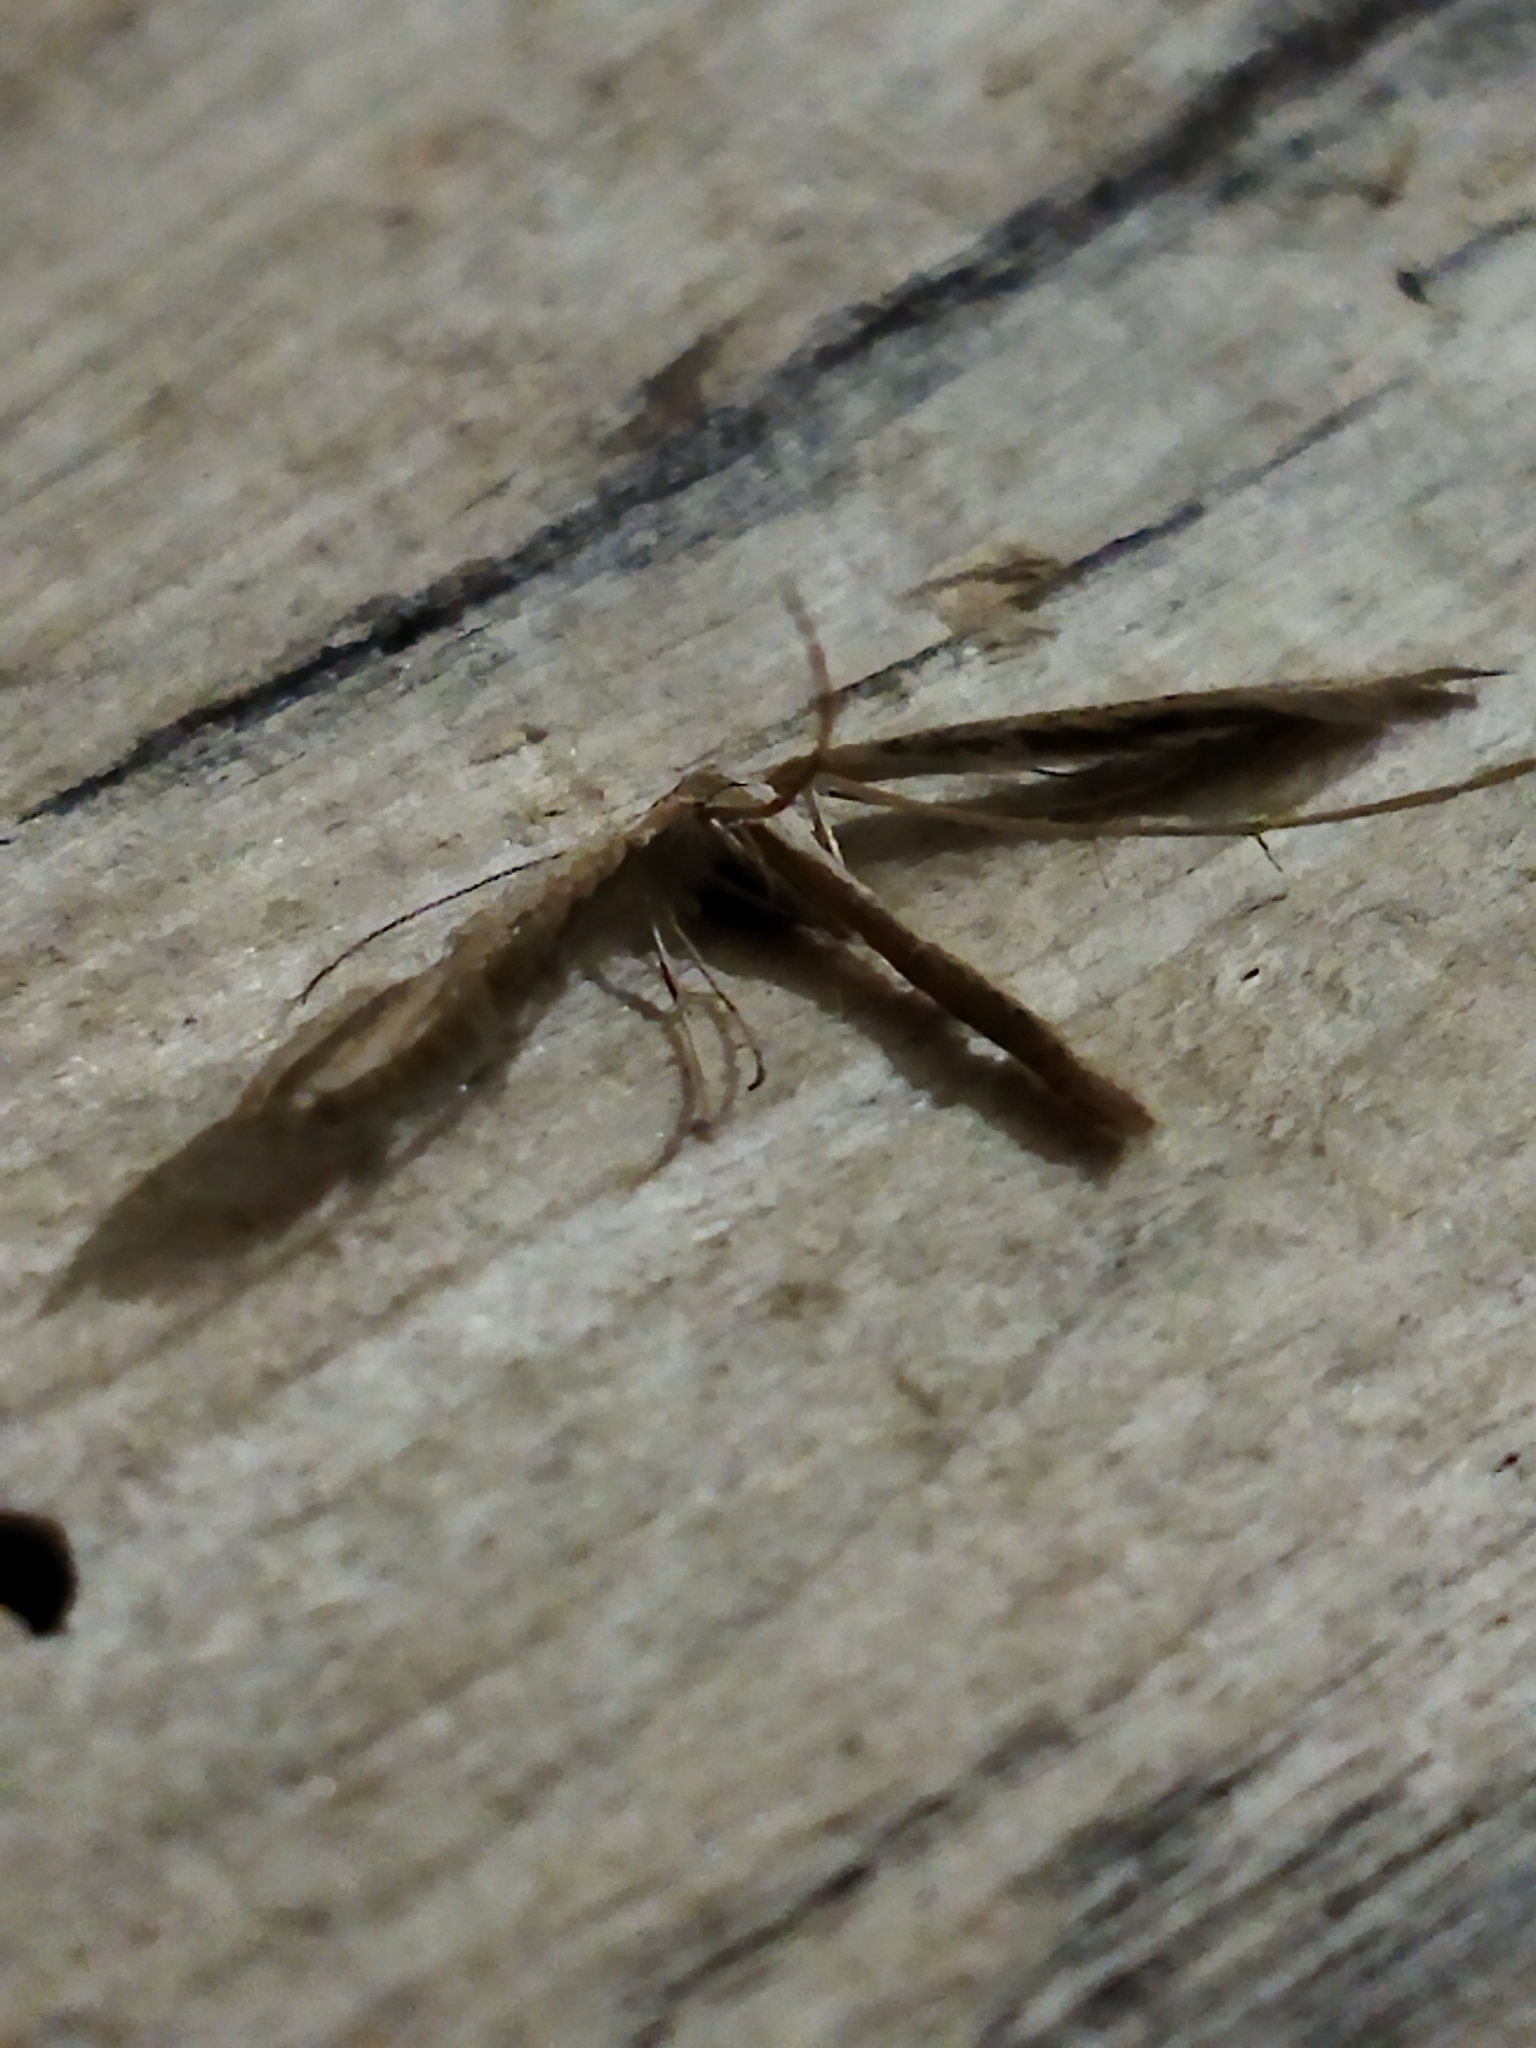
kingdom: Animalia
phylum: Arthropoda
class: Insecta
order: Lepidoptera
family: Pterophoridae
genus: Emmelina
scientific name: Emmelina monodactyla
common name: Common plume
